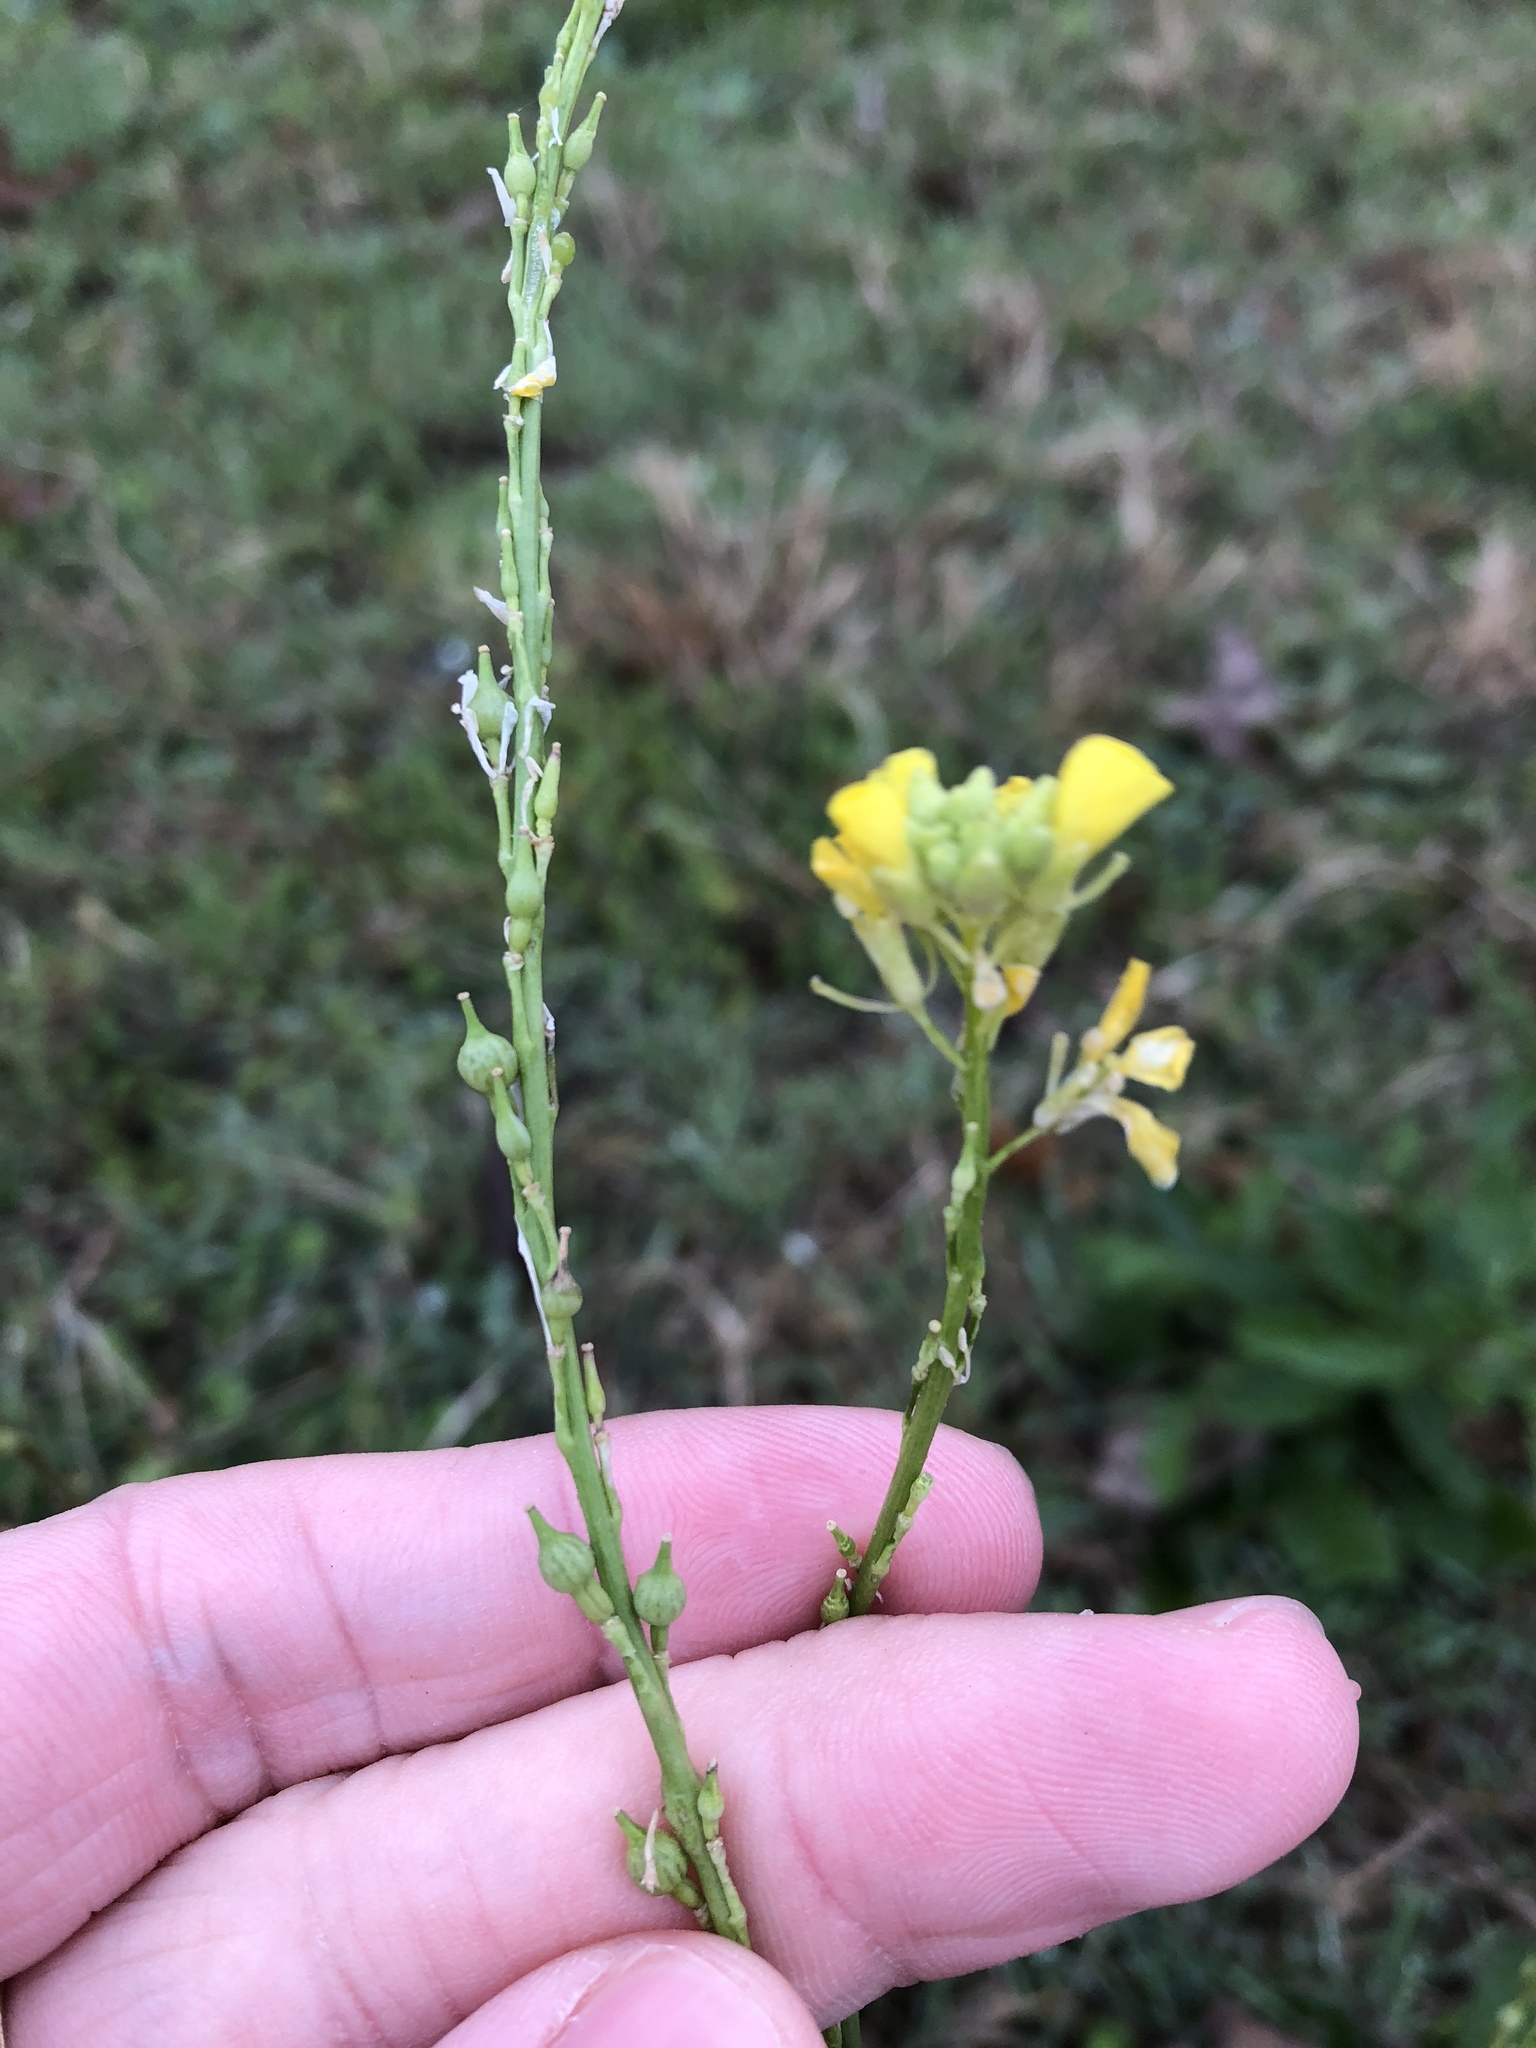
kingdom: Plantae
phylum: Tracheophyta
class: Magnoliopsida
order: Brassicales
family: Brassicaceae
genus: Rapistrum
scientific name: Rapistrum rugosum
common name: Annual bastardcabbage
